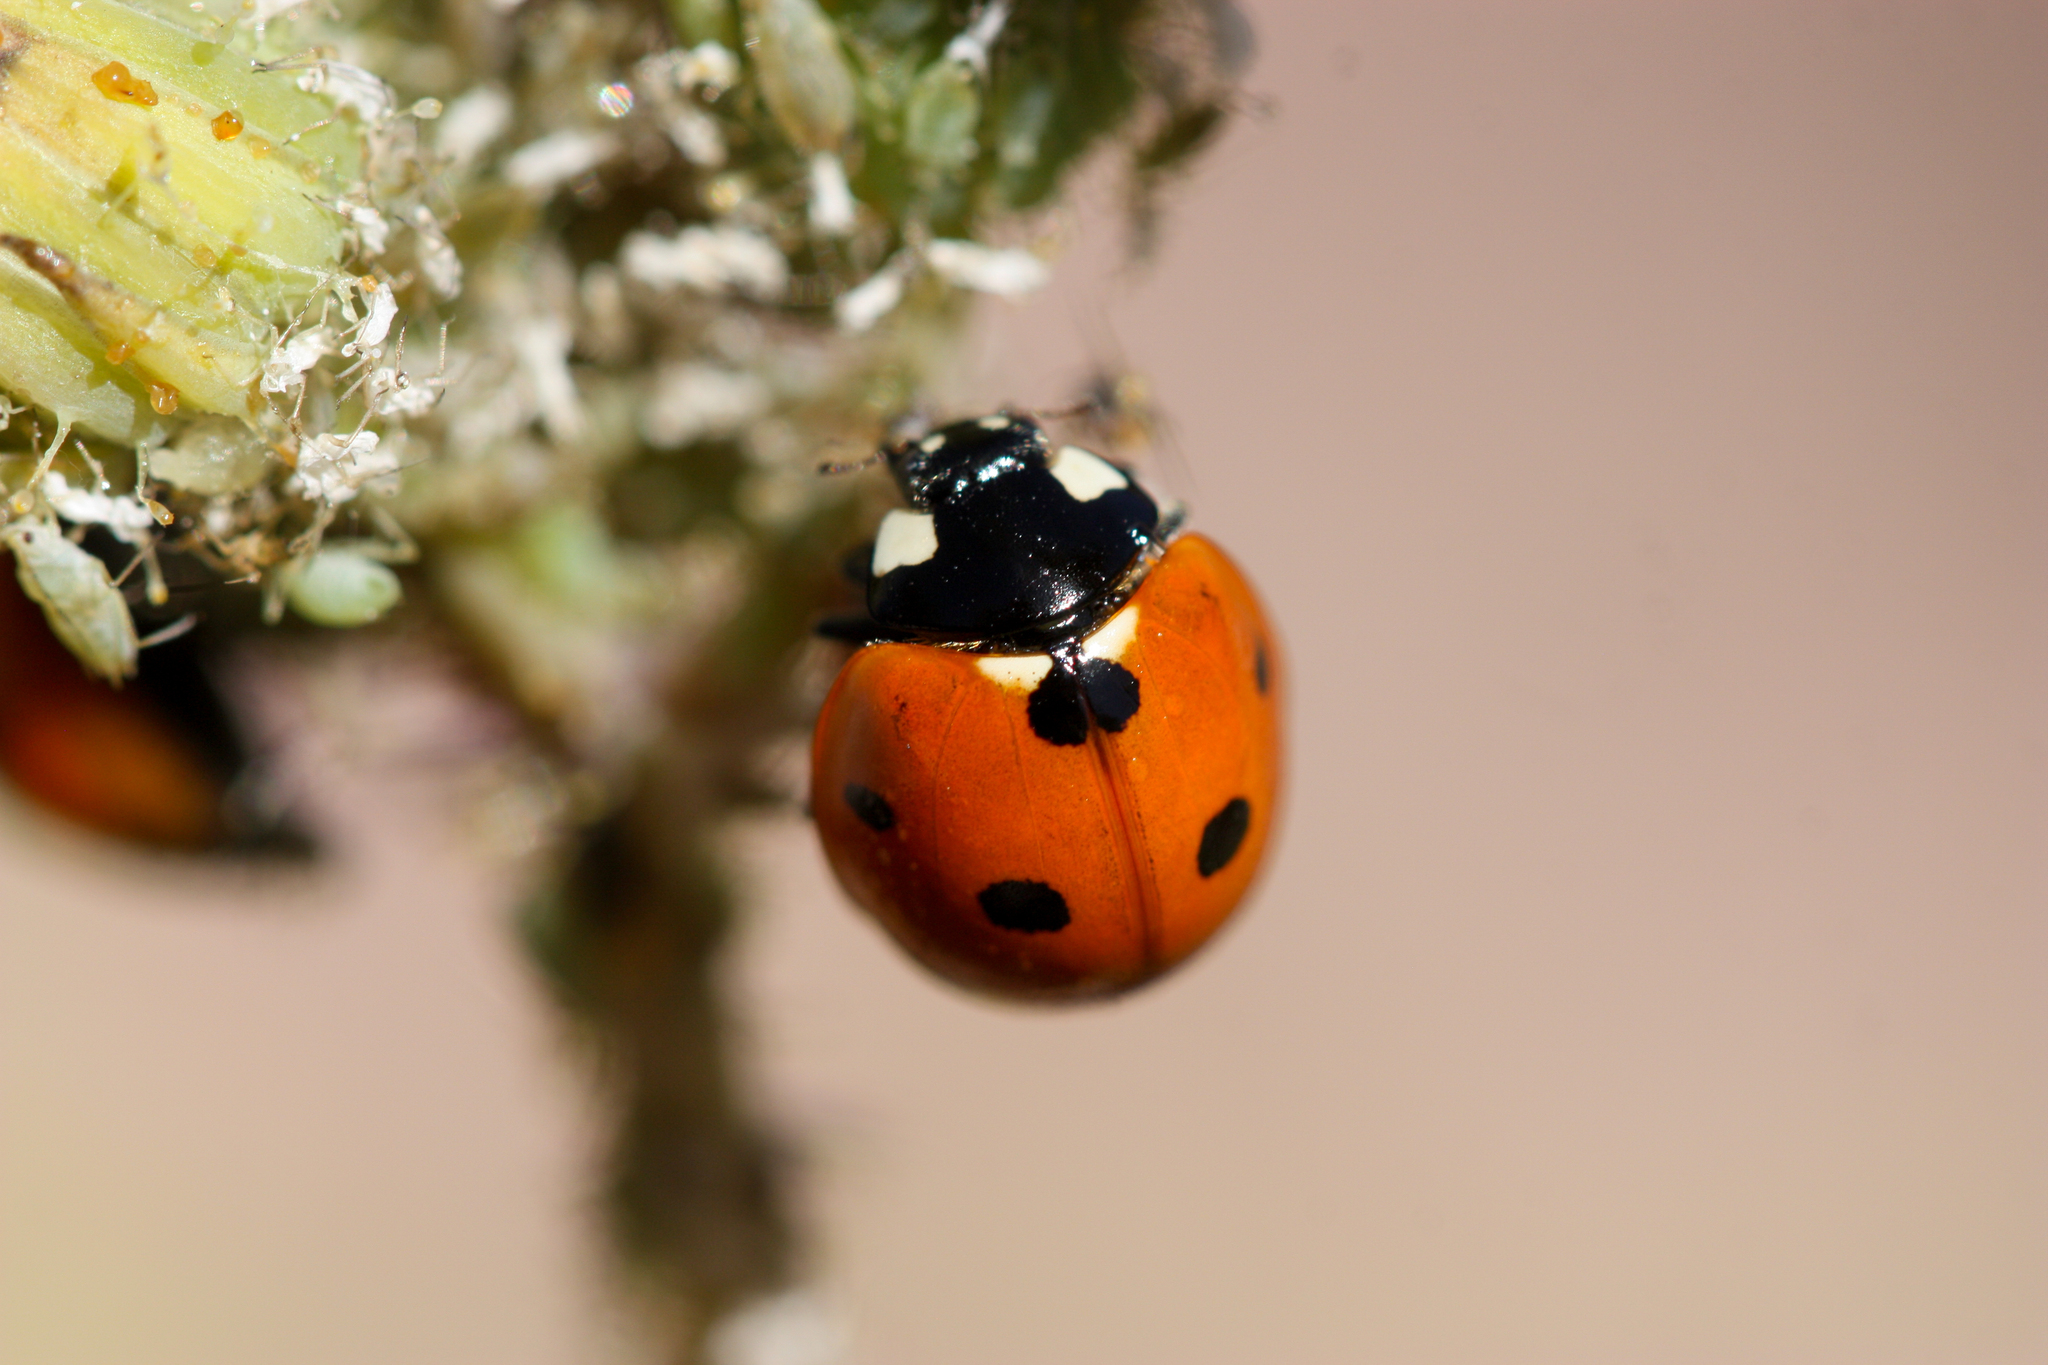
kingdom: Animalia
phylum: Arthropoda
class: Insecta
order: Coleoptera
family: Coccinellidae
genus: Coccinella
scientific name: Coccinella septempunctata
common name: Sevenspotted lady beetle
